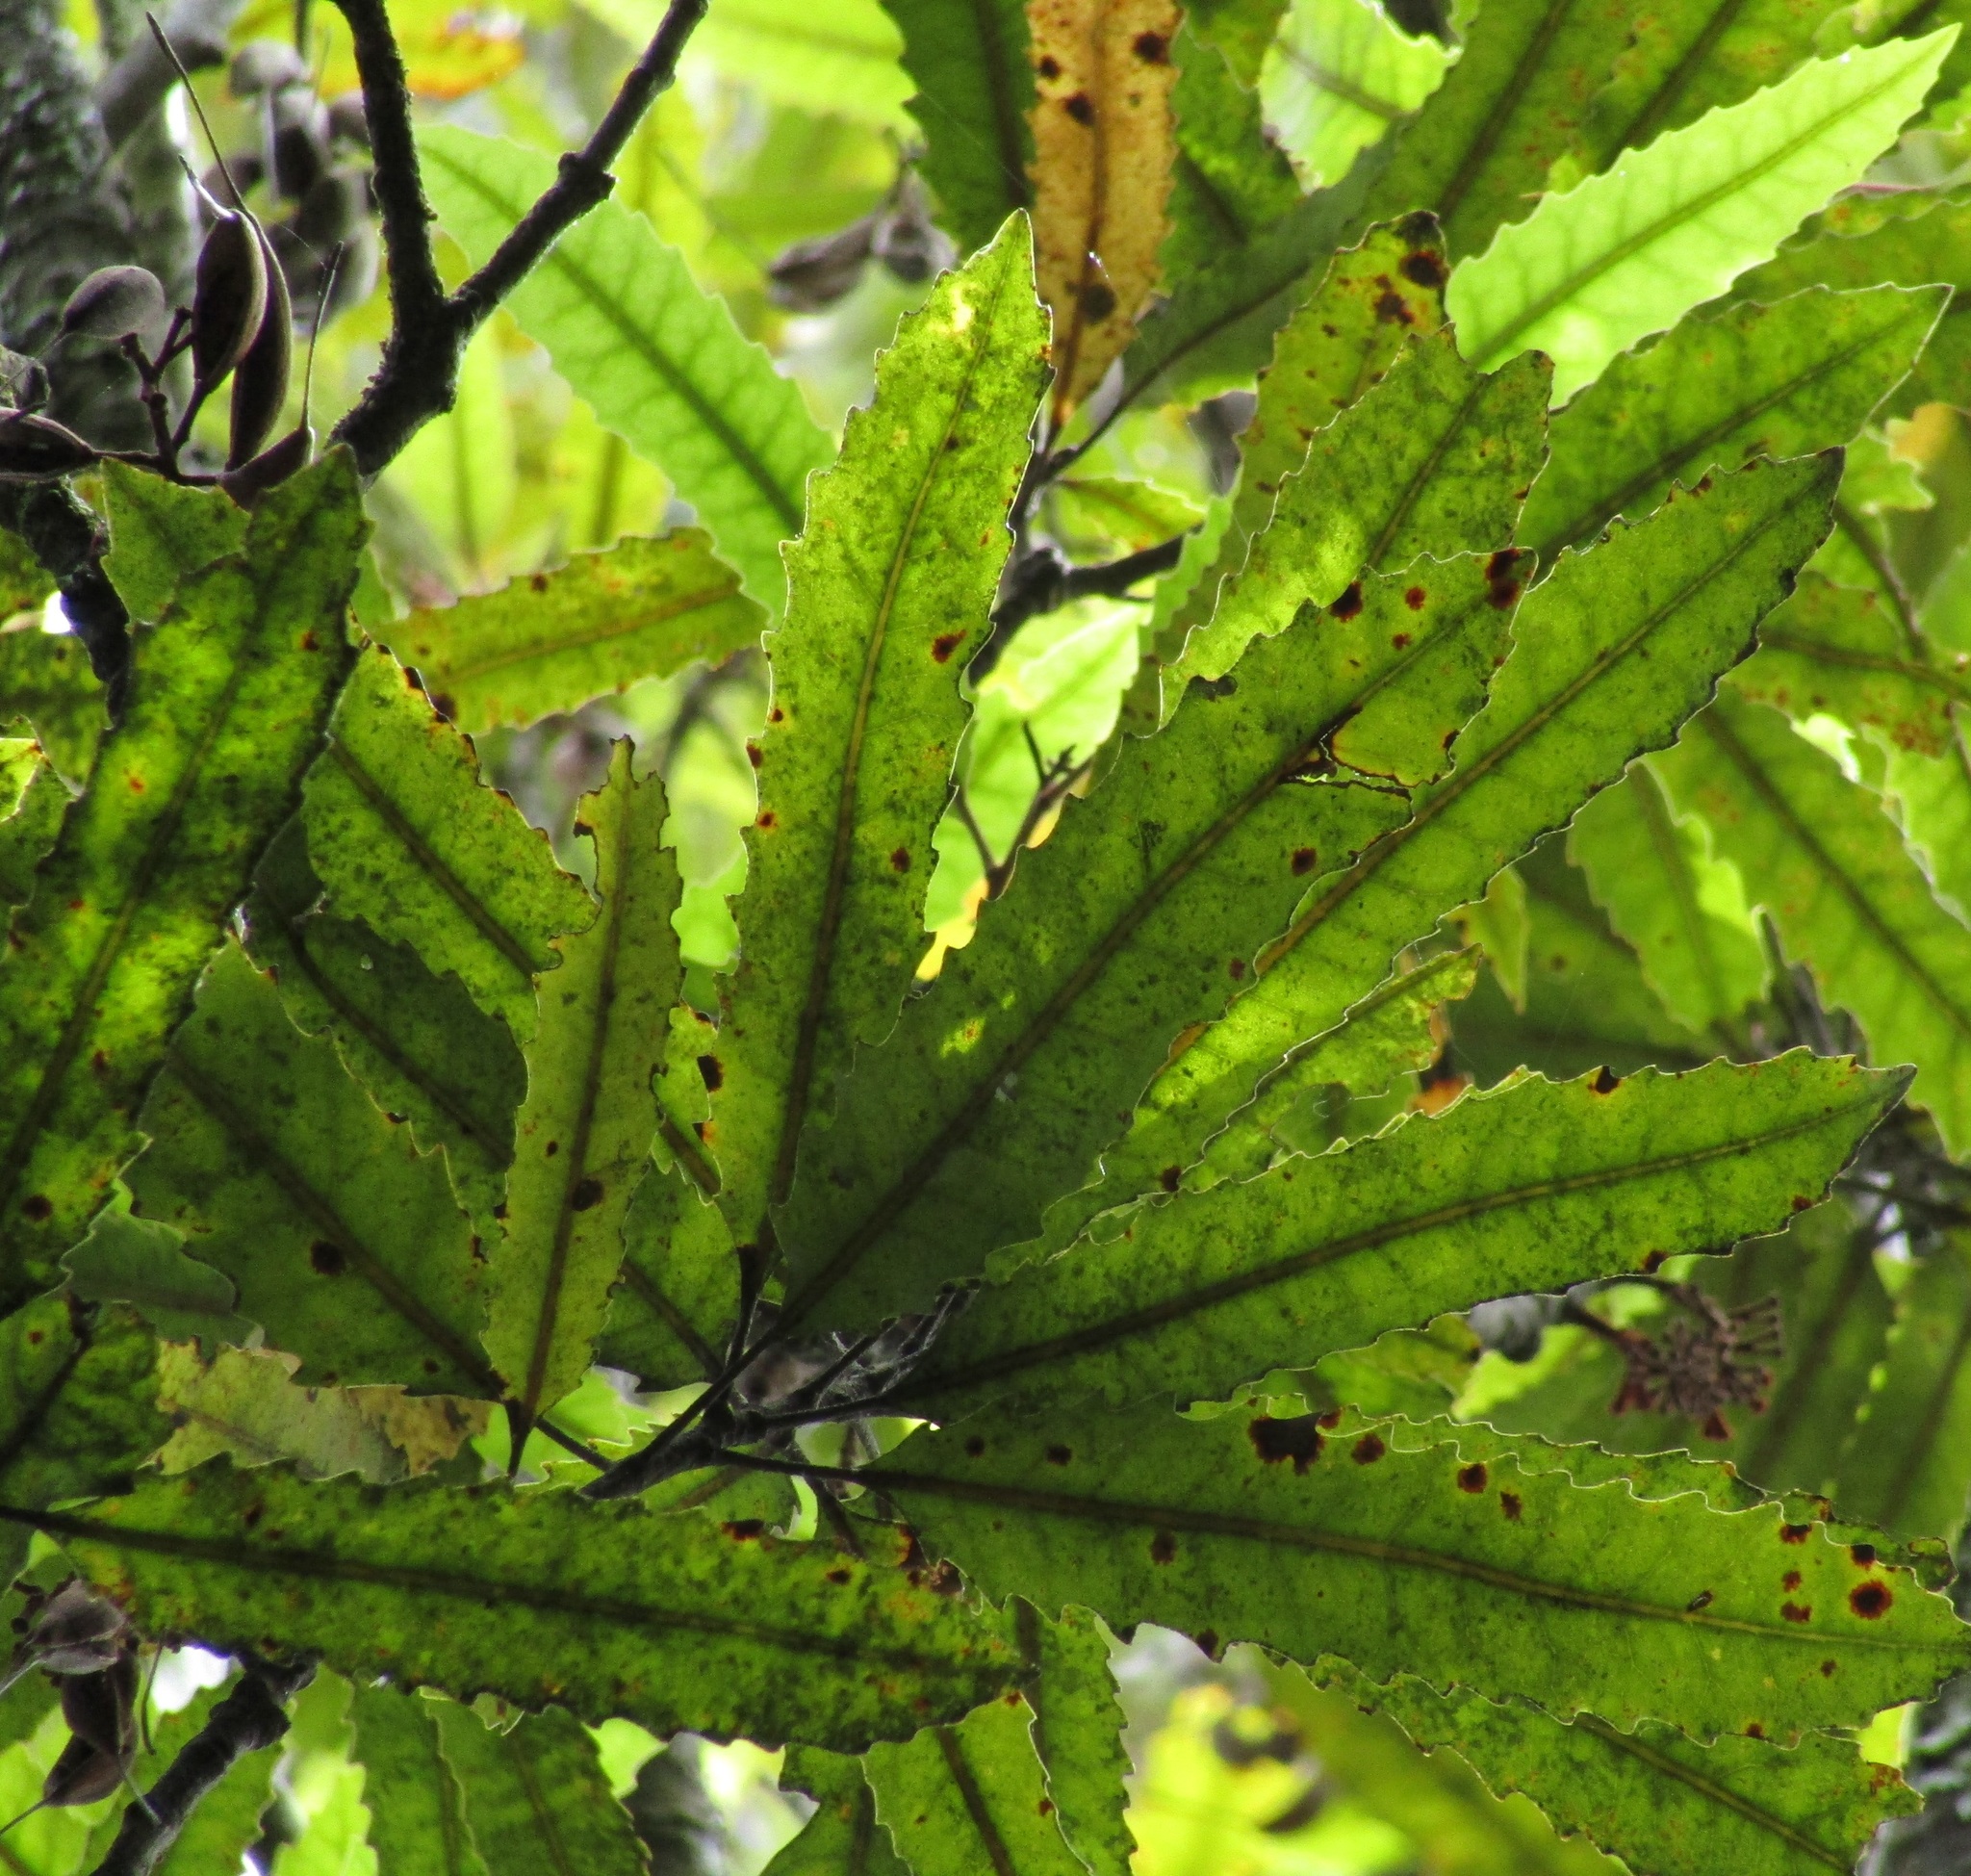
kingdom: Plantae
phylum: Tracheophyta
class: Magnoliopsida
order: Proteales
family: Proteaceae
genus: Knightia
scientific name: Knightia excelsa
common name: New zealand-honeysuckle
